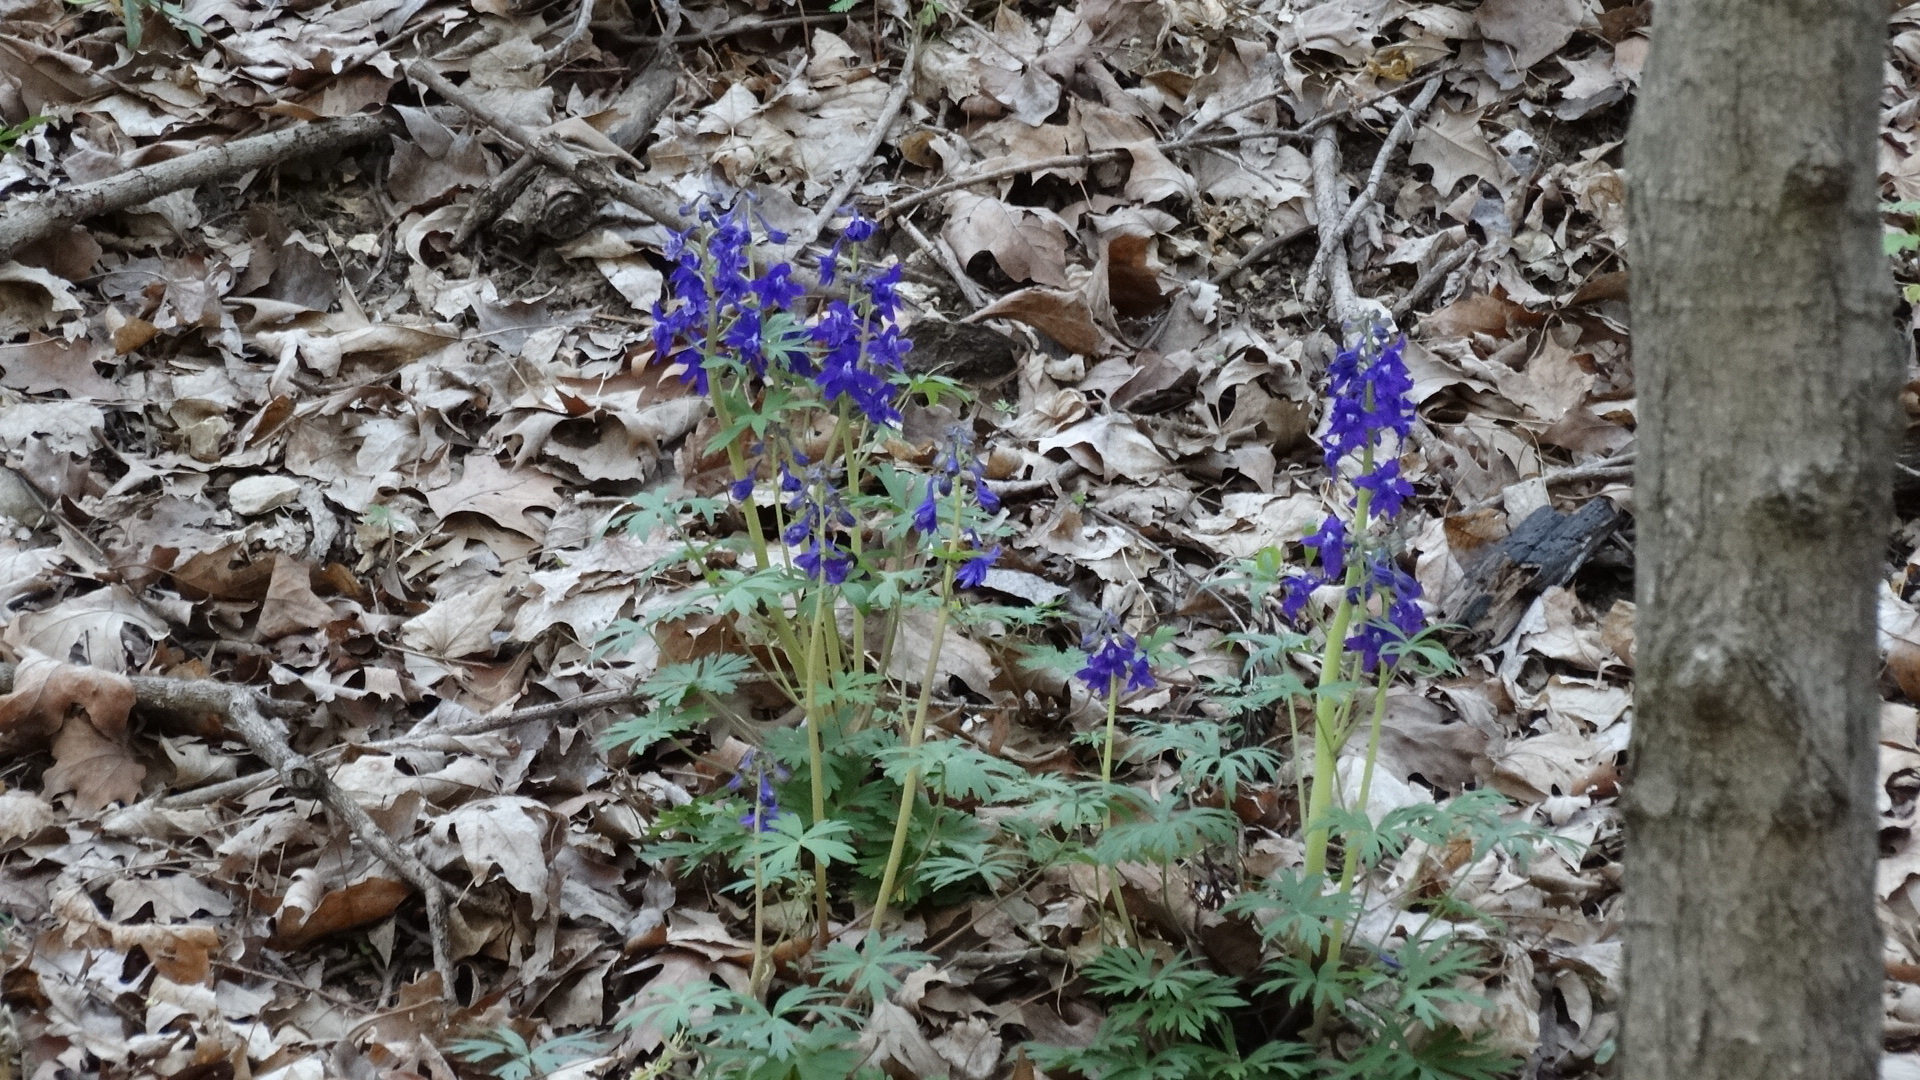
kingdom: Plantae
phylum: Tracheophyta
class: Magnoliopsida
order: Ranunculales
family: Ranunculaceae
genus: Delphinium
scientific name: Delphinium tricorne
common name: Dwarf larkspur
